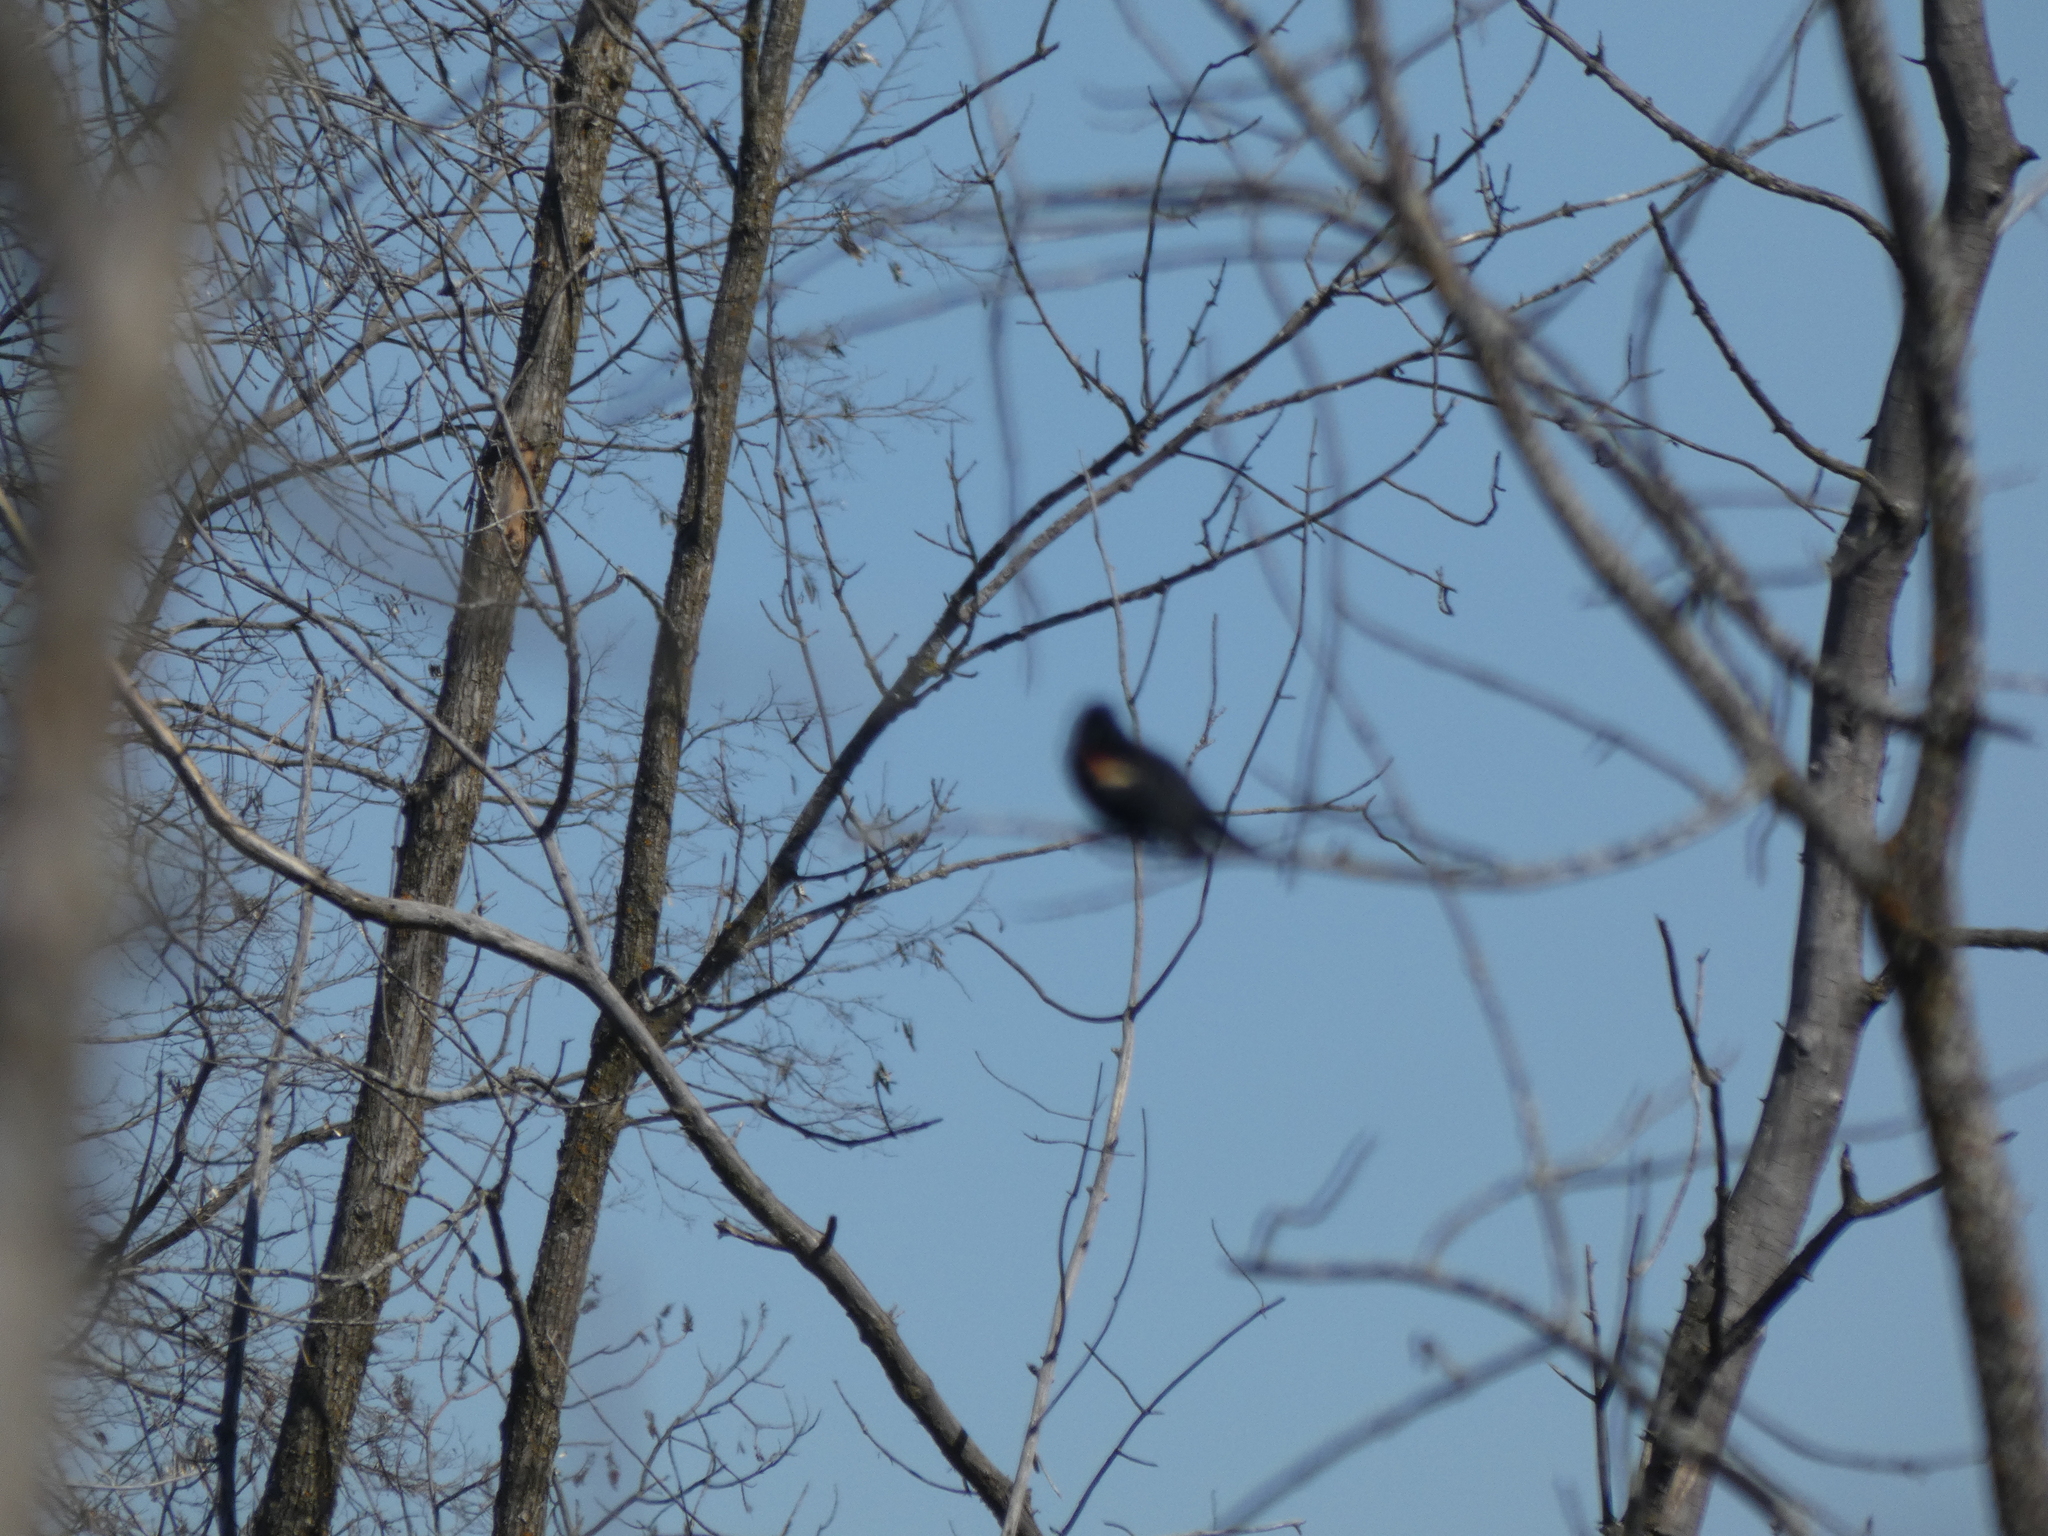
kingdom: Animalia
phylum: Chordata
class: Aves
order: Passeriformes
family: Icteridae
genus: Agelaius
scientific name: Agelaius phoeniceus
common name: Red-winged blackbird
